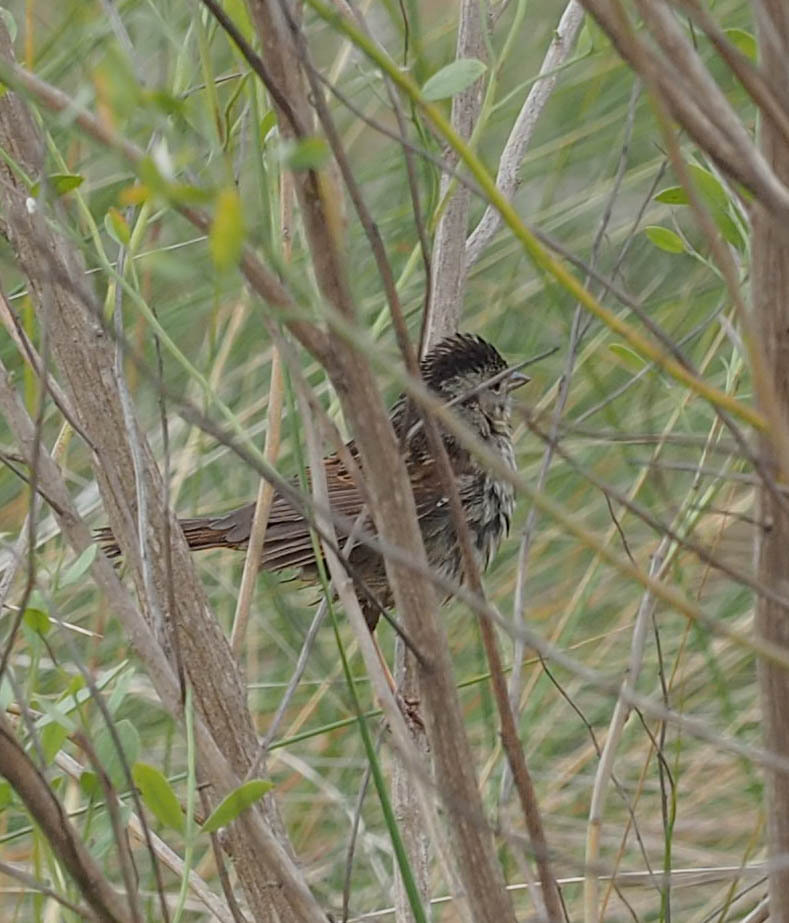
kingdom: Animalia
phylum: Chordata
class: Aves
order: Passeriformes
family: Passerellidae
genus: Melospiza
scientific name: Melospiza georgiana
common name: Swamp sparrow
